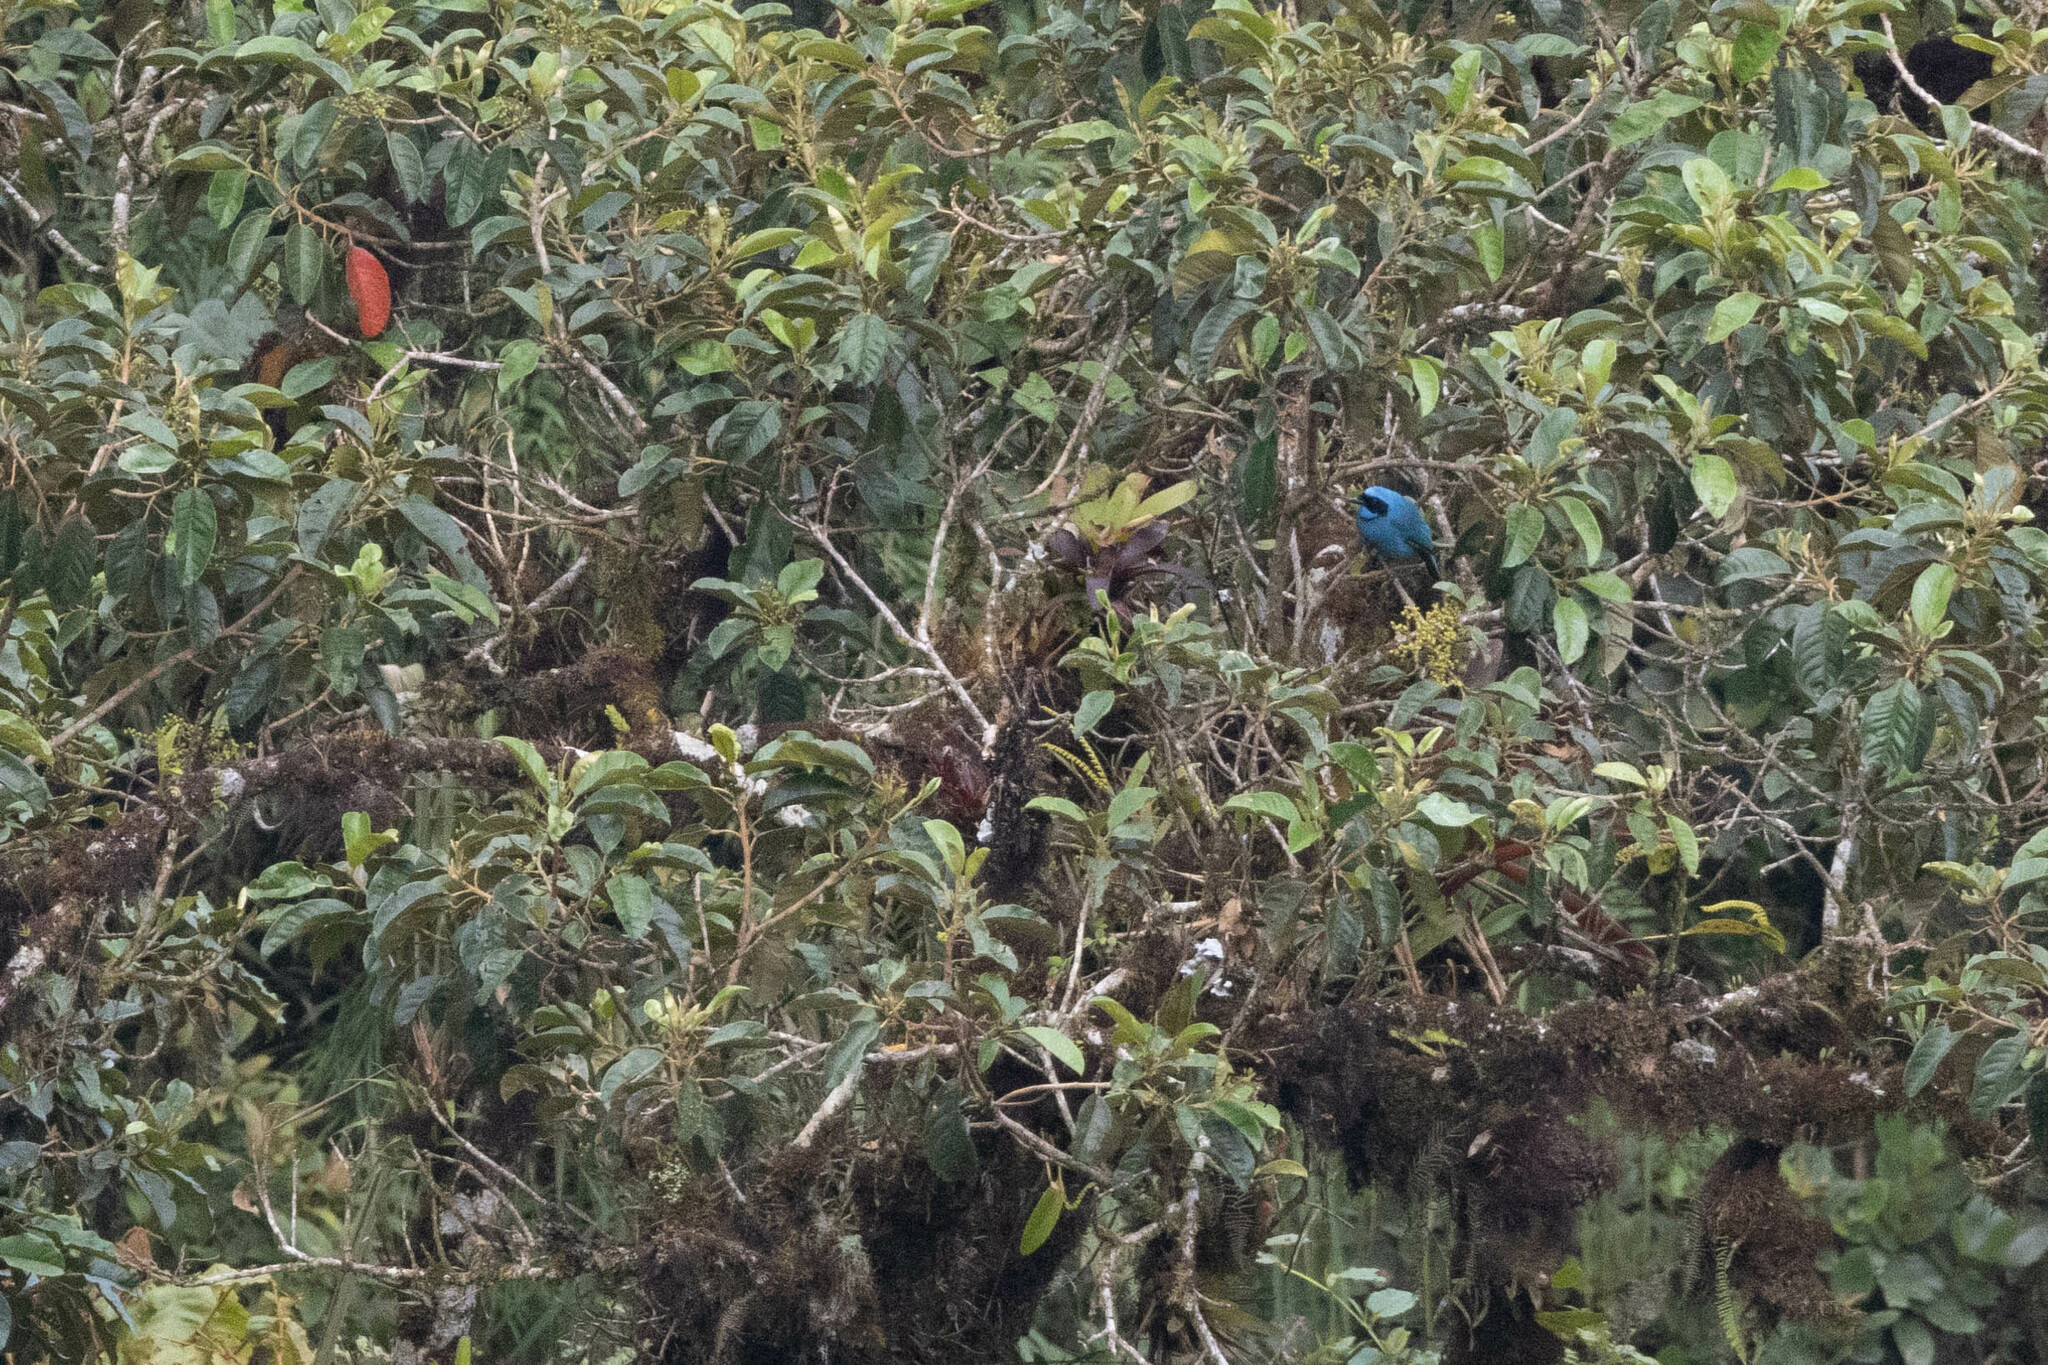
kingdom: Animalia
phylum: Chordata
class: Aves
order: Passeriformes
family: Corvidae
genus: Cyanolyca
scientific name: Cyanolyca turcosa
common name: Turquoise jay
